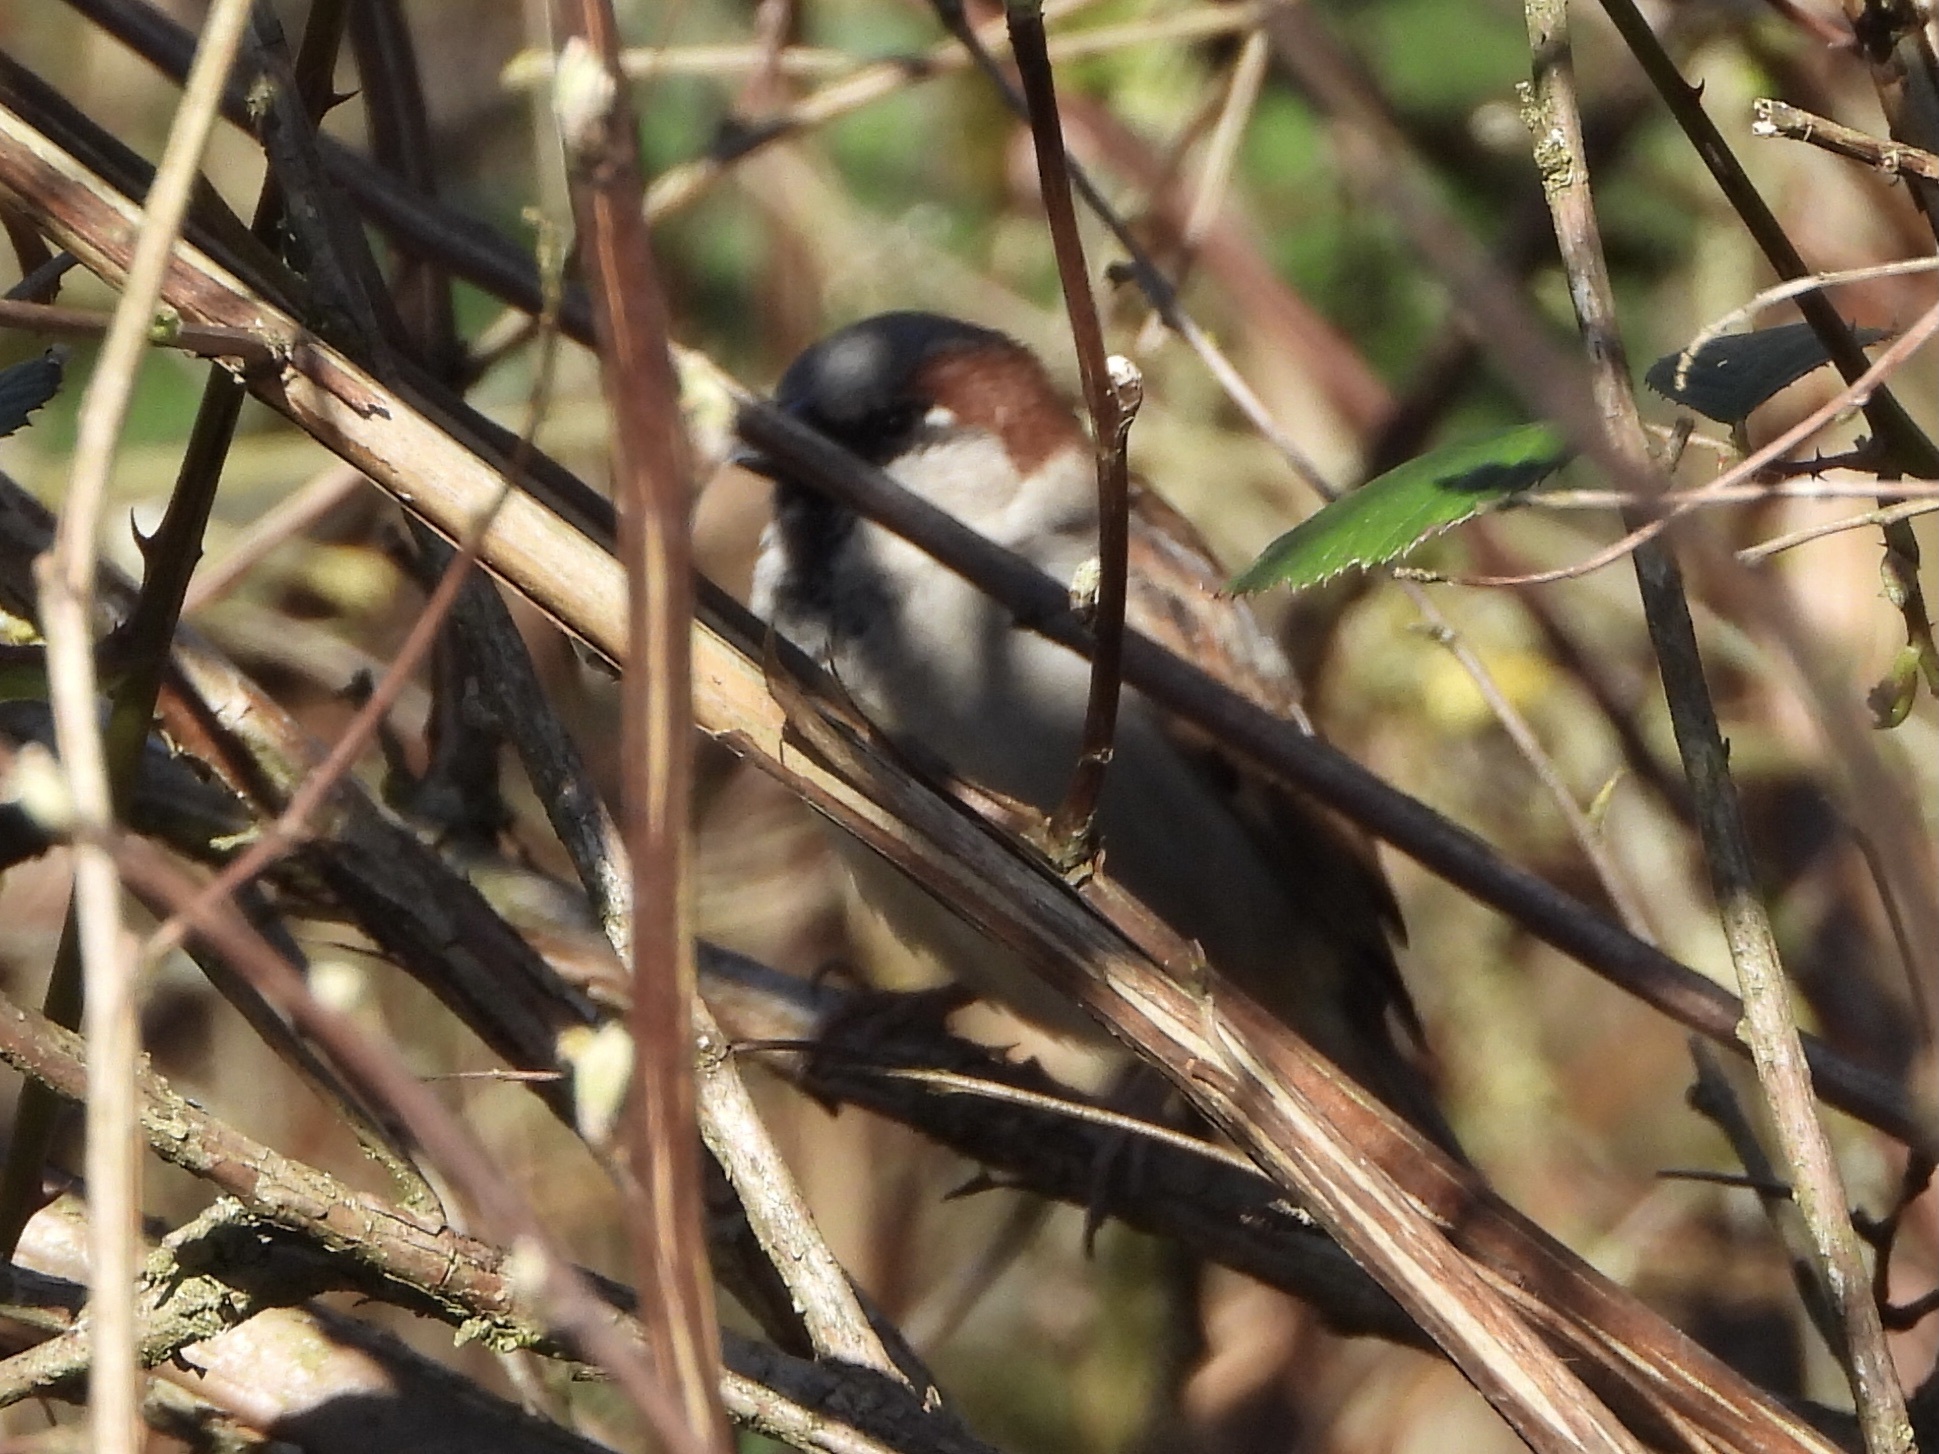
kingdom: Animalia
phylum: Chordata
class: Aves
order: Passeriformes
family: Passeridae
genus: Passer
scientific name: Passer domesticus
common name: House sparrow
